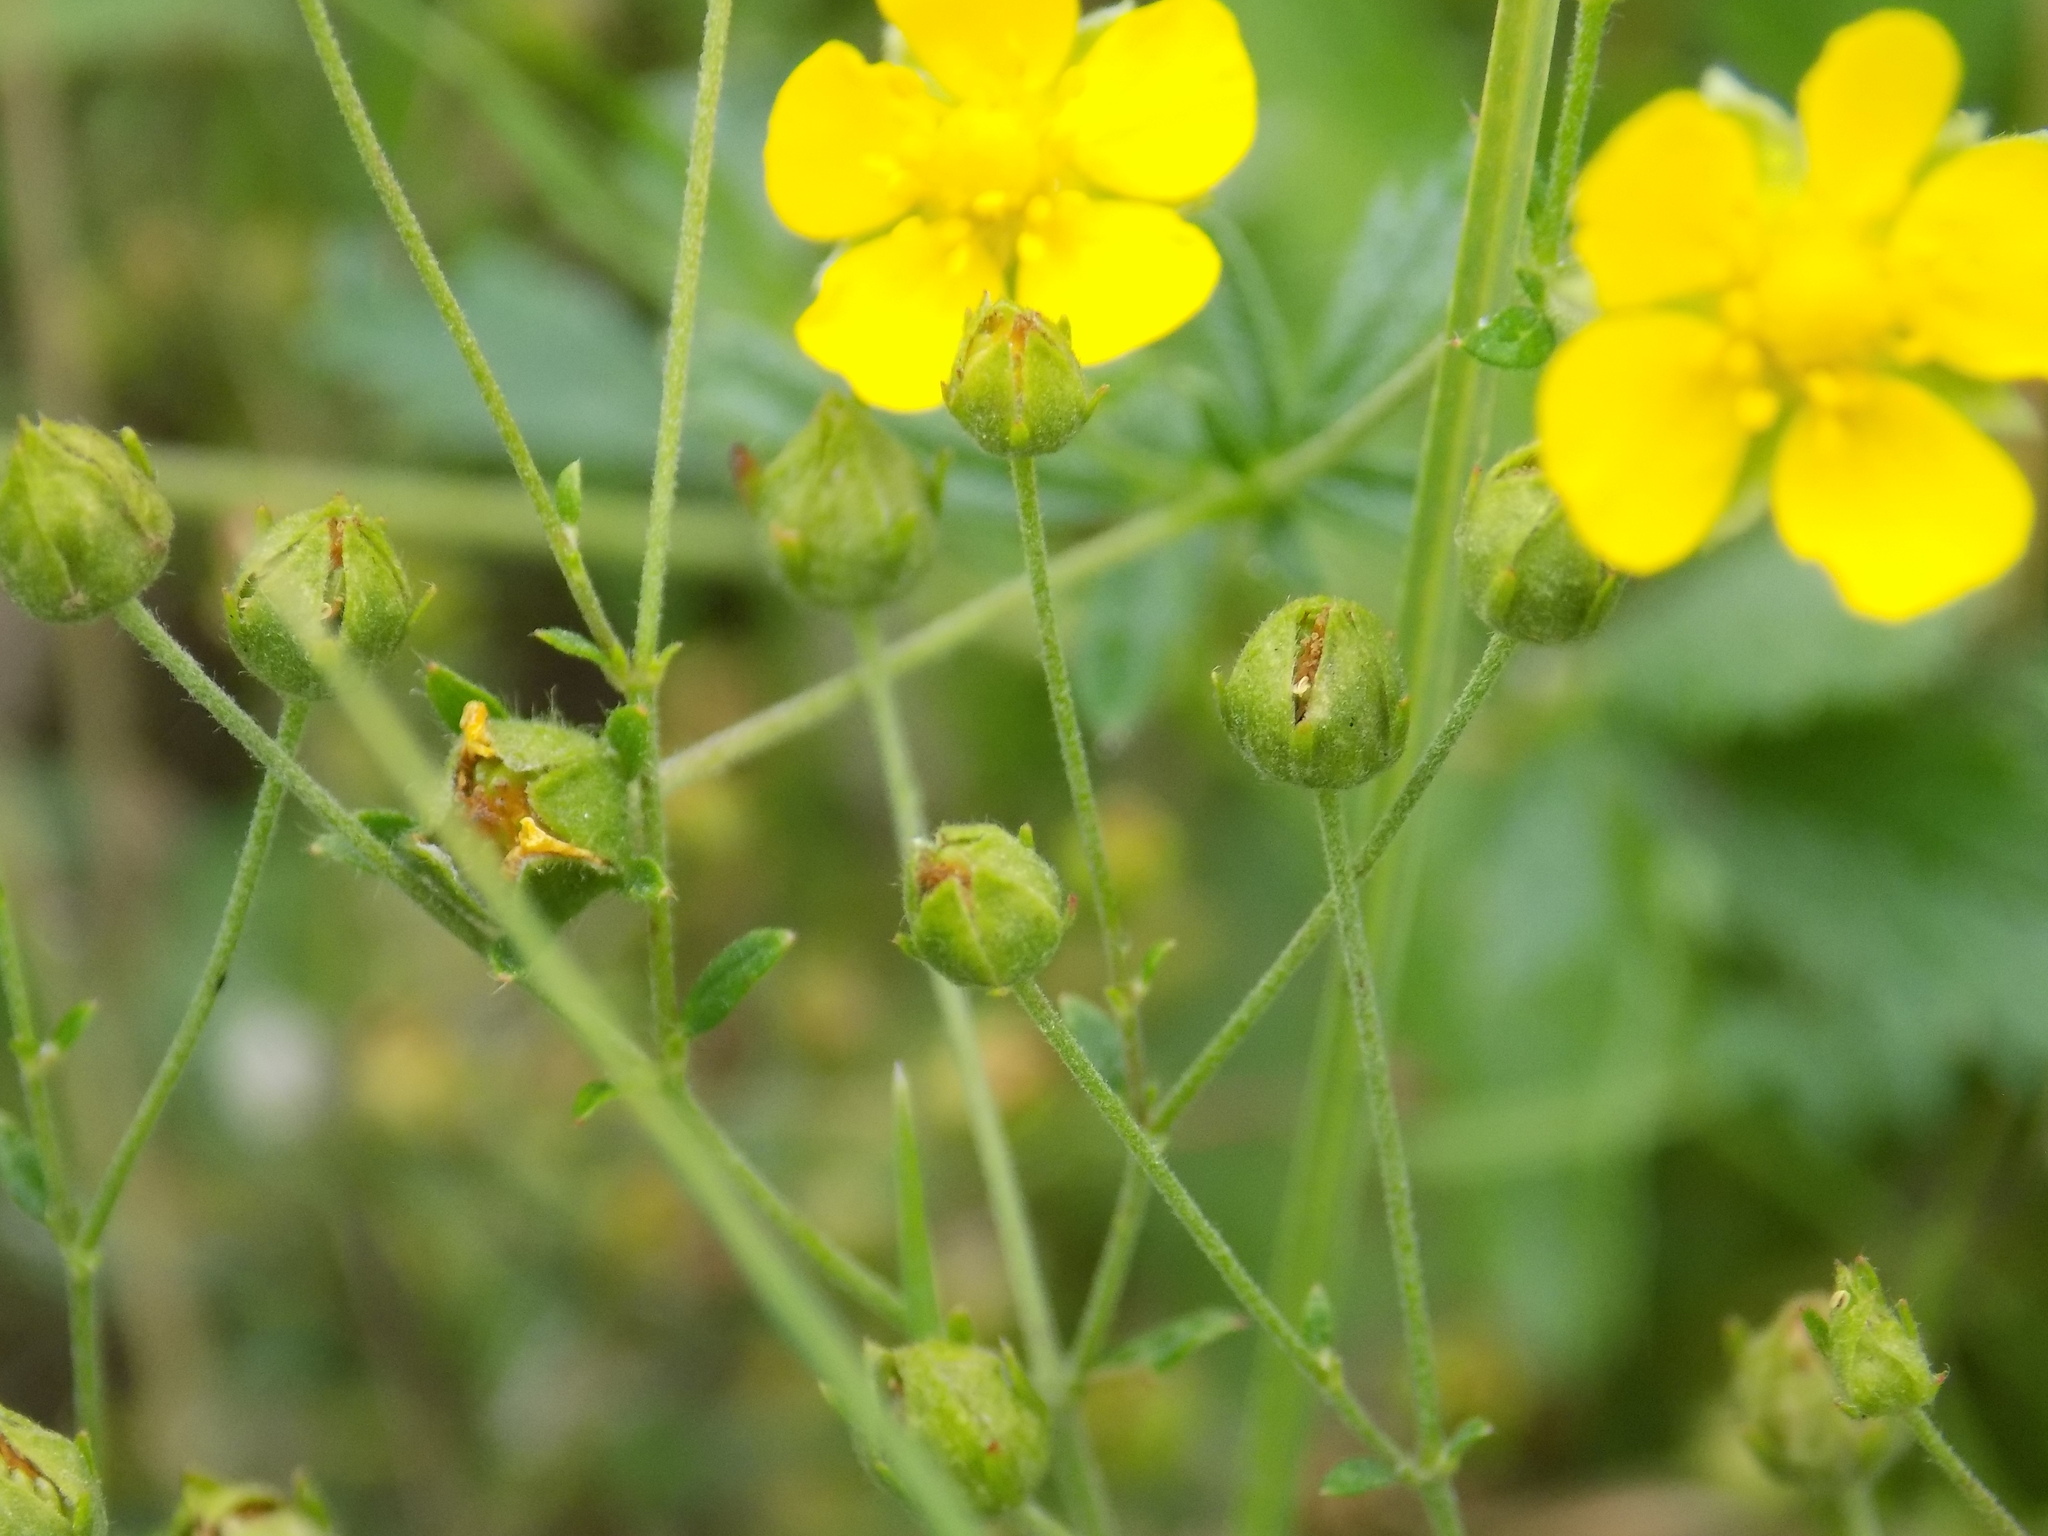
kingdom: Plantae
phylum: Tracheophyta
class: Magnoliopsida
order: Rosales
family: Rosaceae
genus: Potentilla
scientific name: Potentilla argentea
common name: Hoary cinquefoil
